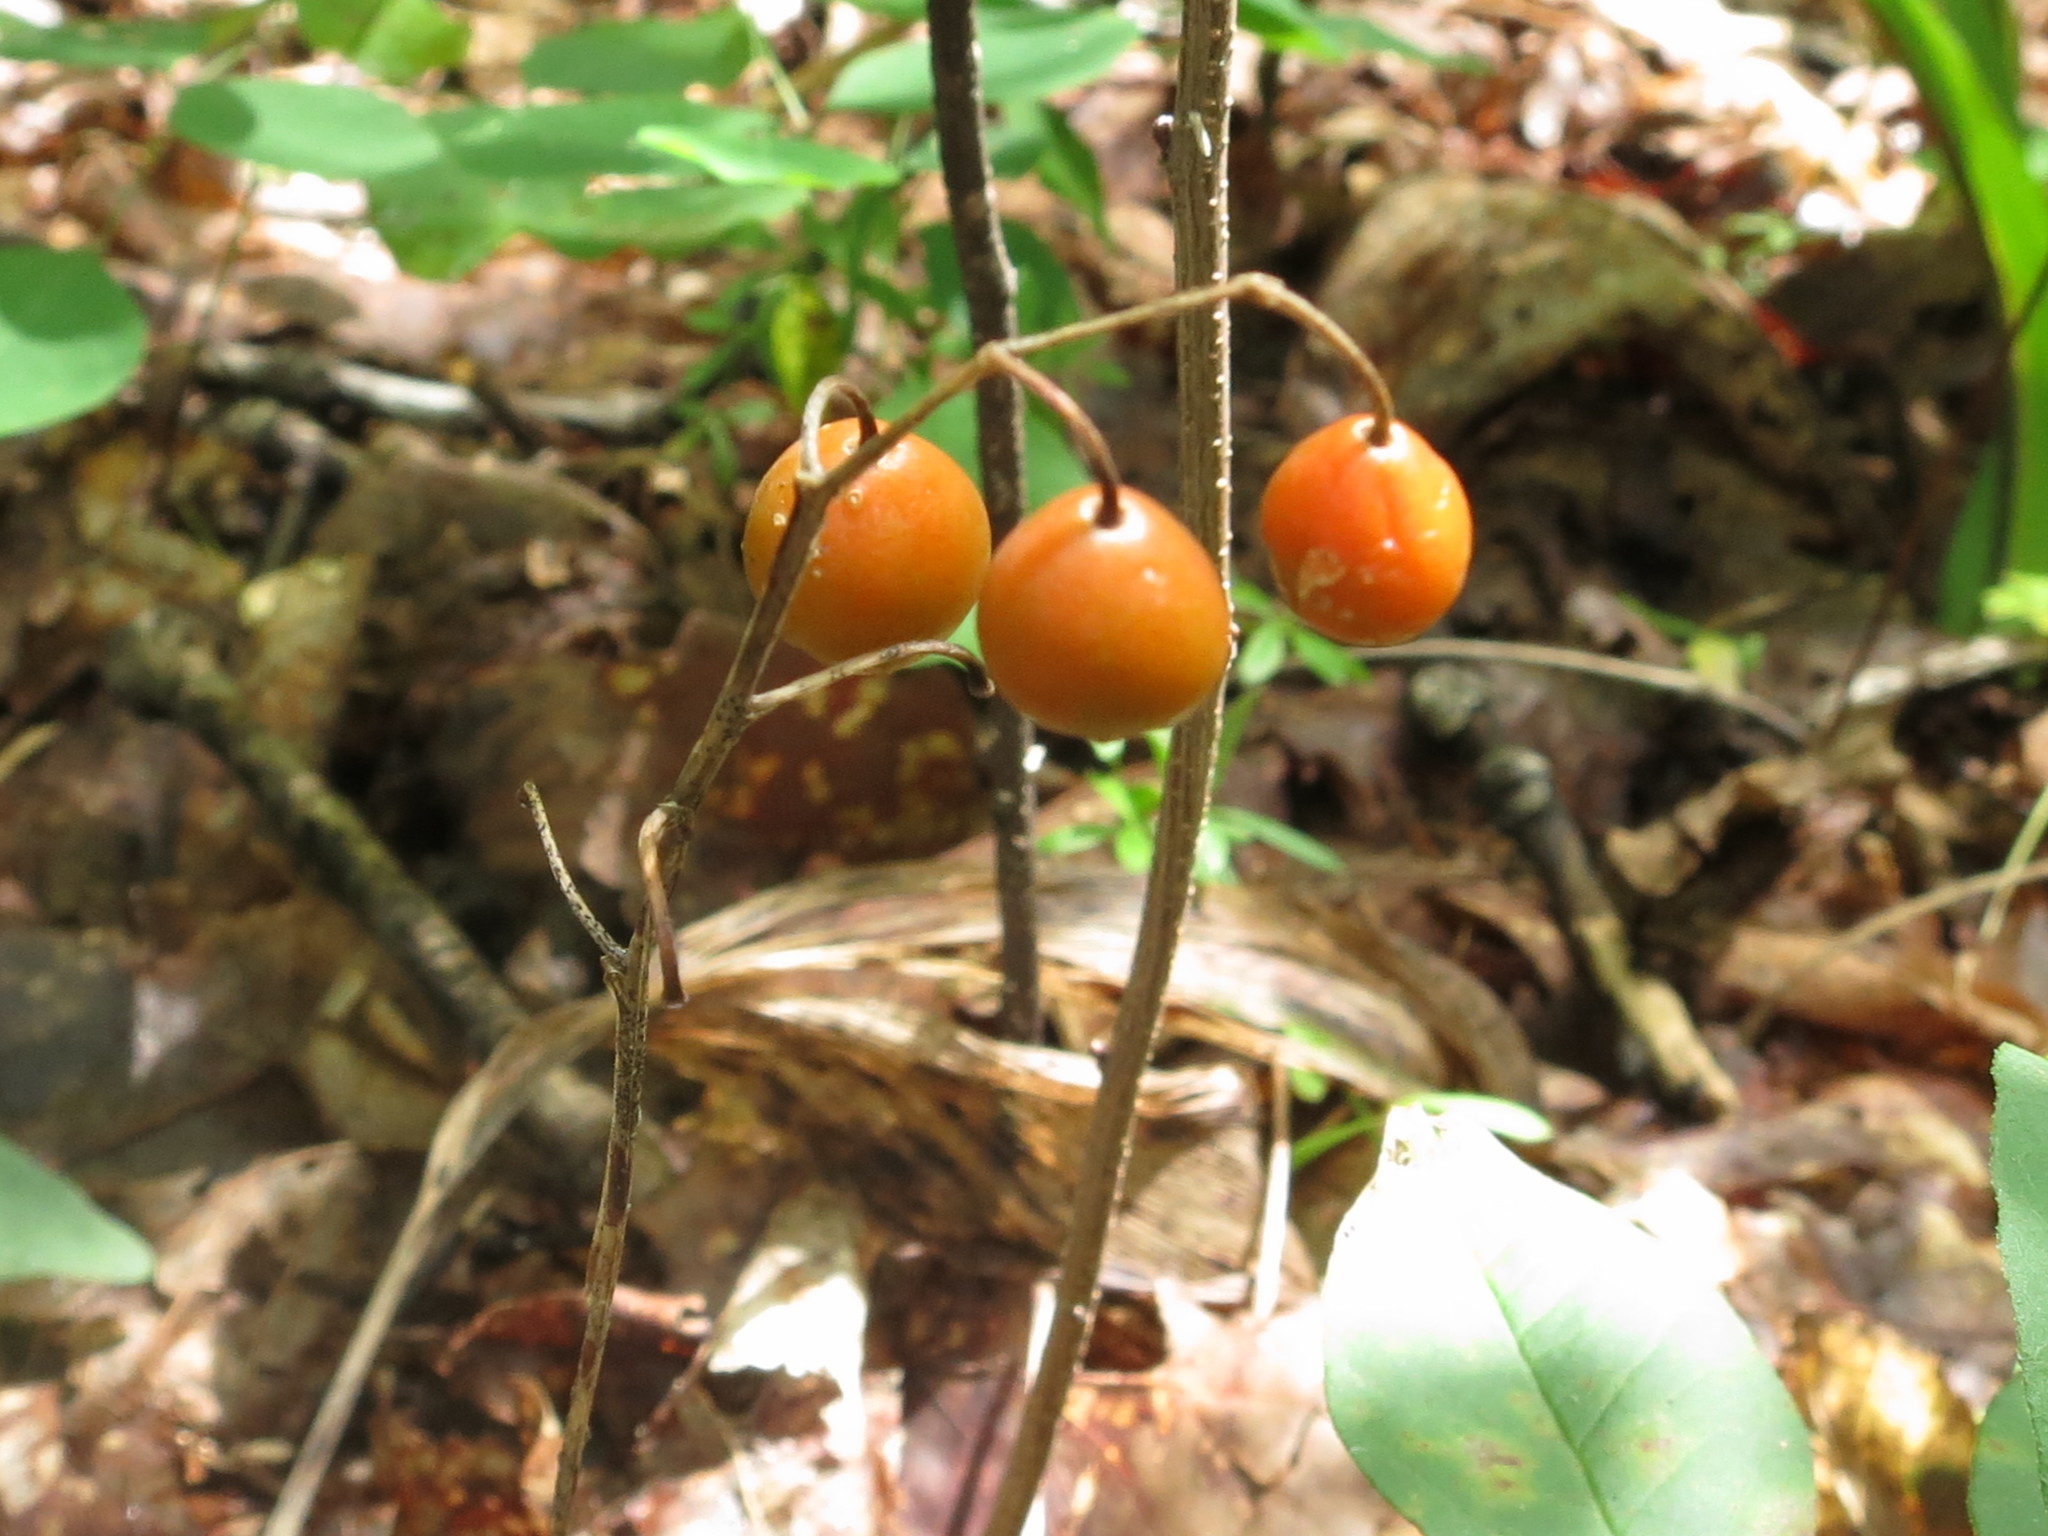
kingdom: Plantae
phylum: Tracheophyta
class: Liliopsida
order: Asparagales
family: Asparagaceae
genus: Convallaria
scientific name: Convallaria keiskei
